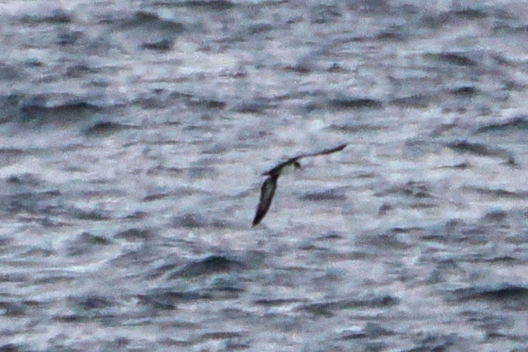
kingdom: Animalia
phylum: Chordata
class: Aves
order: Procellariiformes
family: Procellariidae
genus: Puffinus
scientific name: Puffinus creatopus
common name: Pink-footed shearwater
